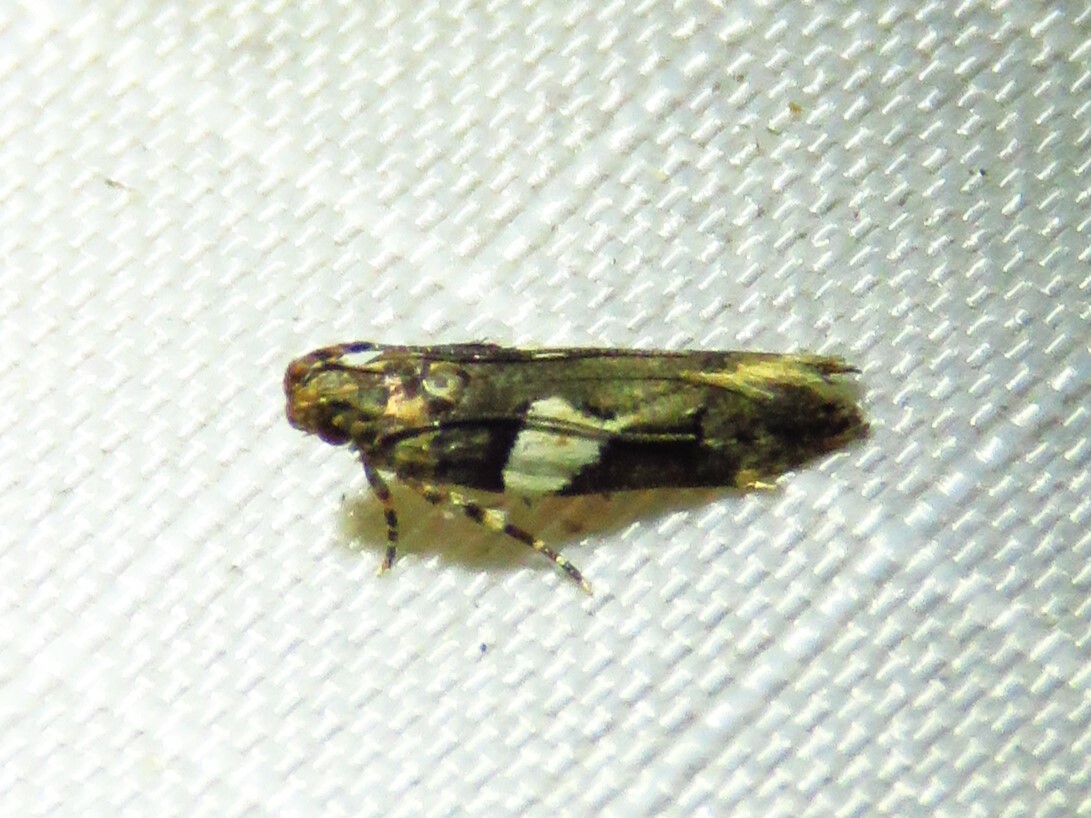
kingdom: Animalia
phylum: Arthropoda
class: Insecta
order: Lepidoptera
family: Gelechiidae
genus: Friseria
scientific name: Friseria acaciella
